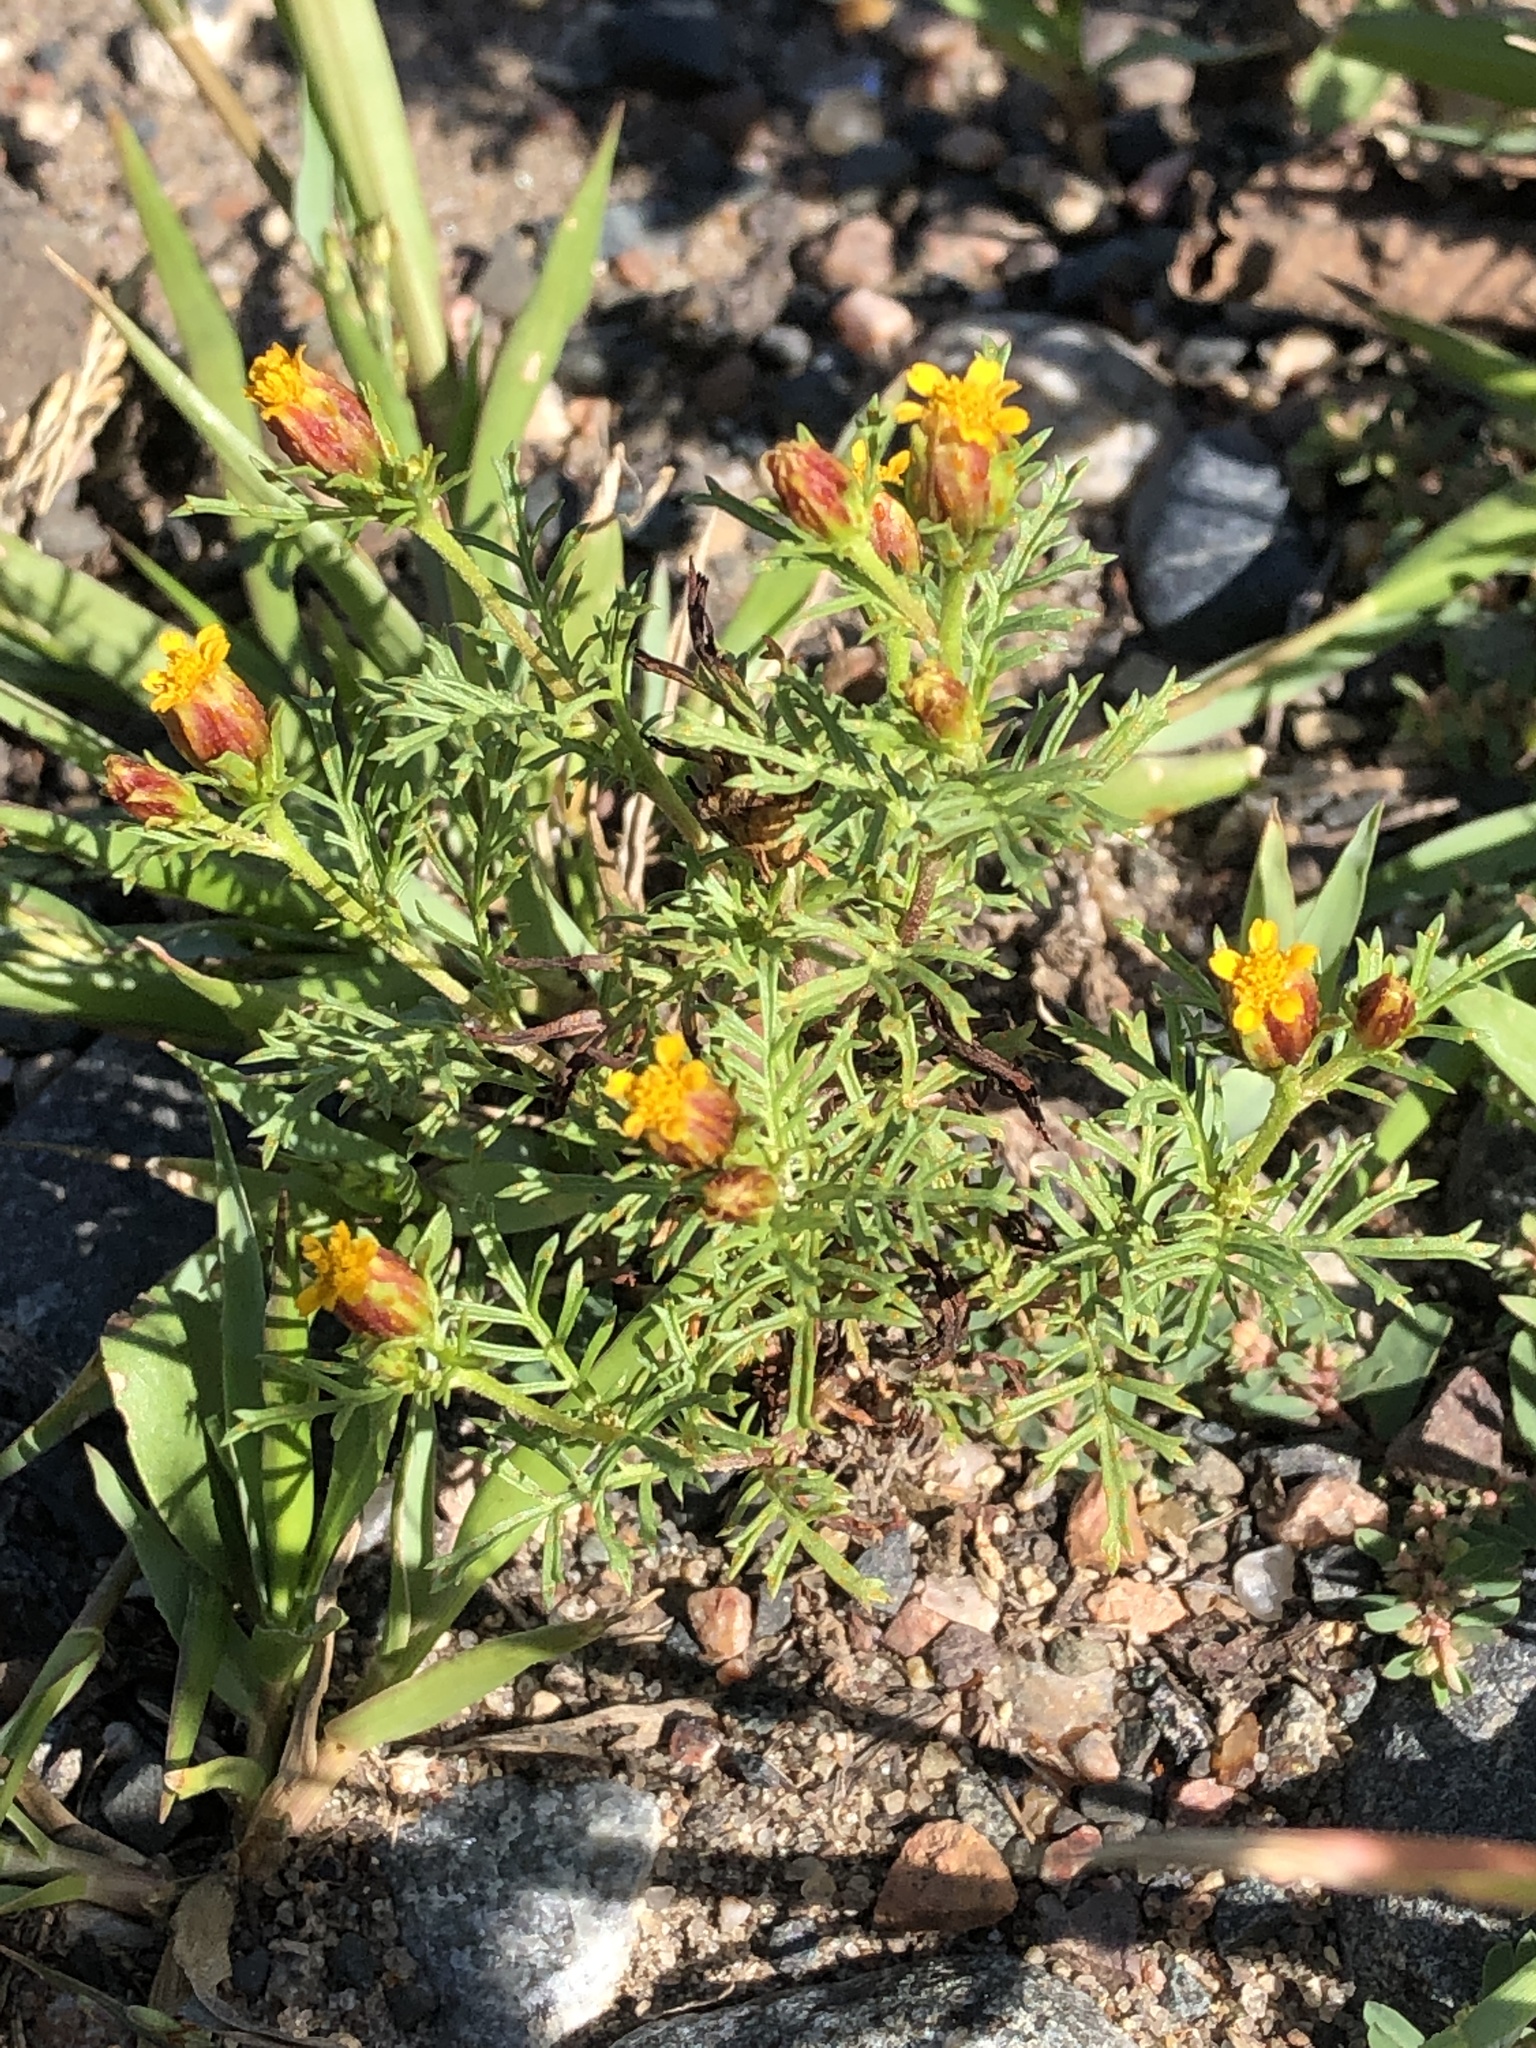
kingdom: Plantae
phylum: Tracheophyta
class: Magnoliopsida
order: Asterales
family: Asteraceae
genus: Dyssodia
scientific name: Dyssodia papposa
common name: Dogweed
